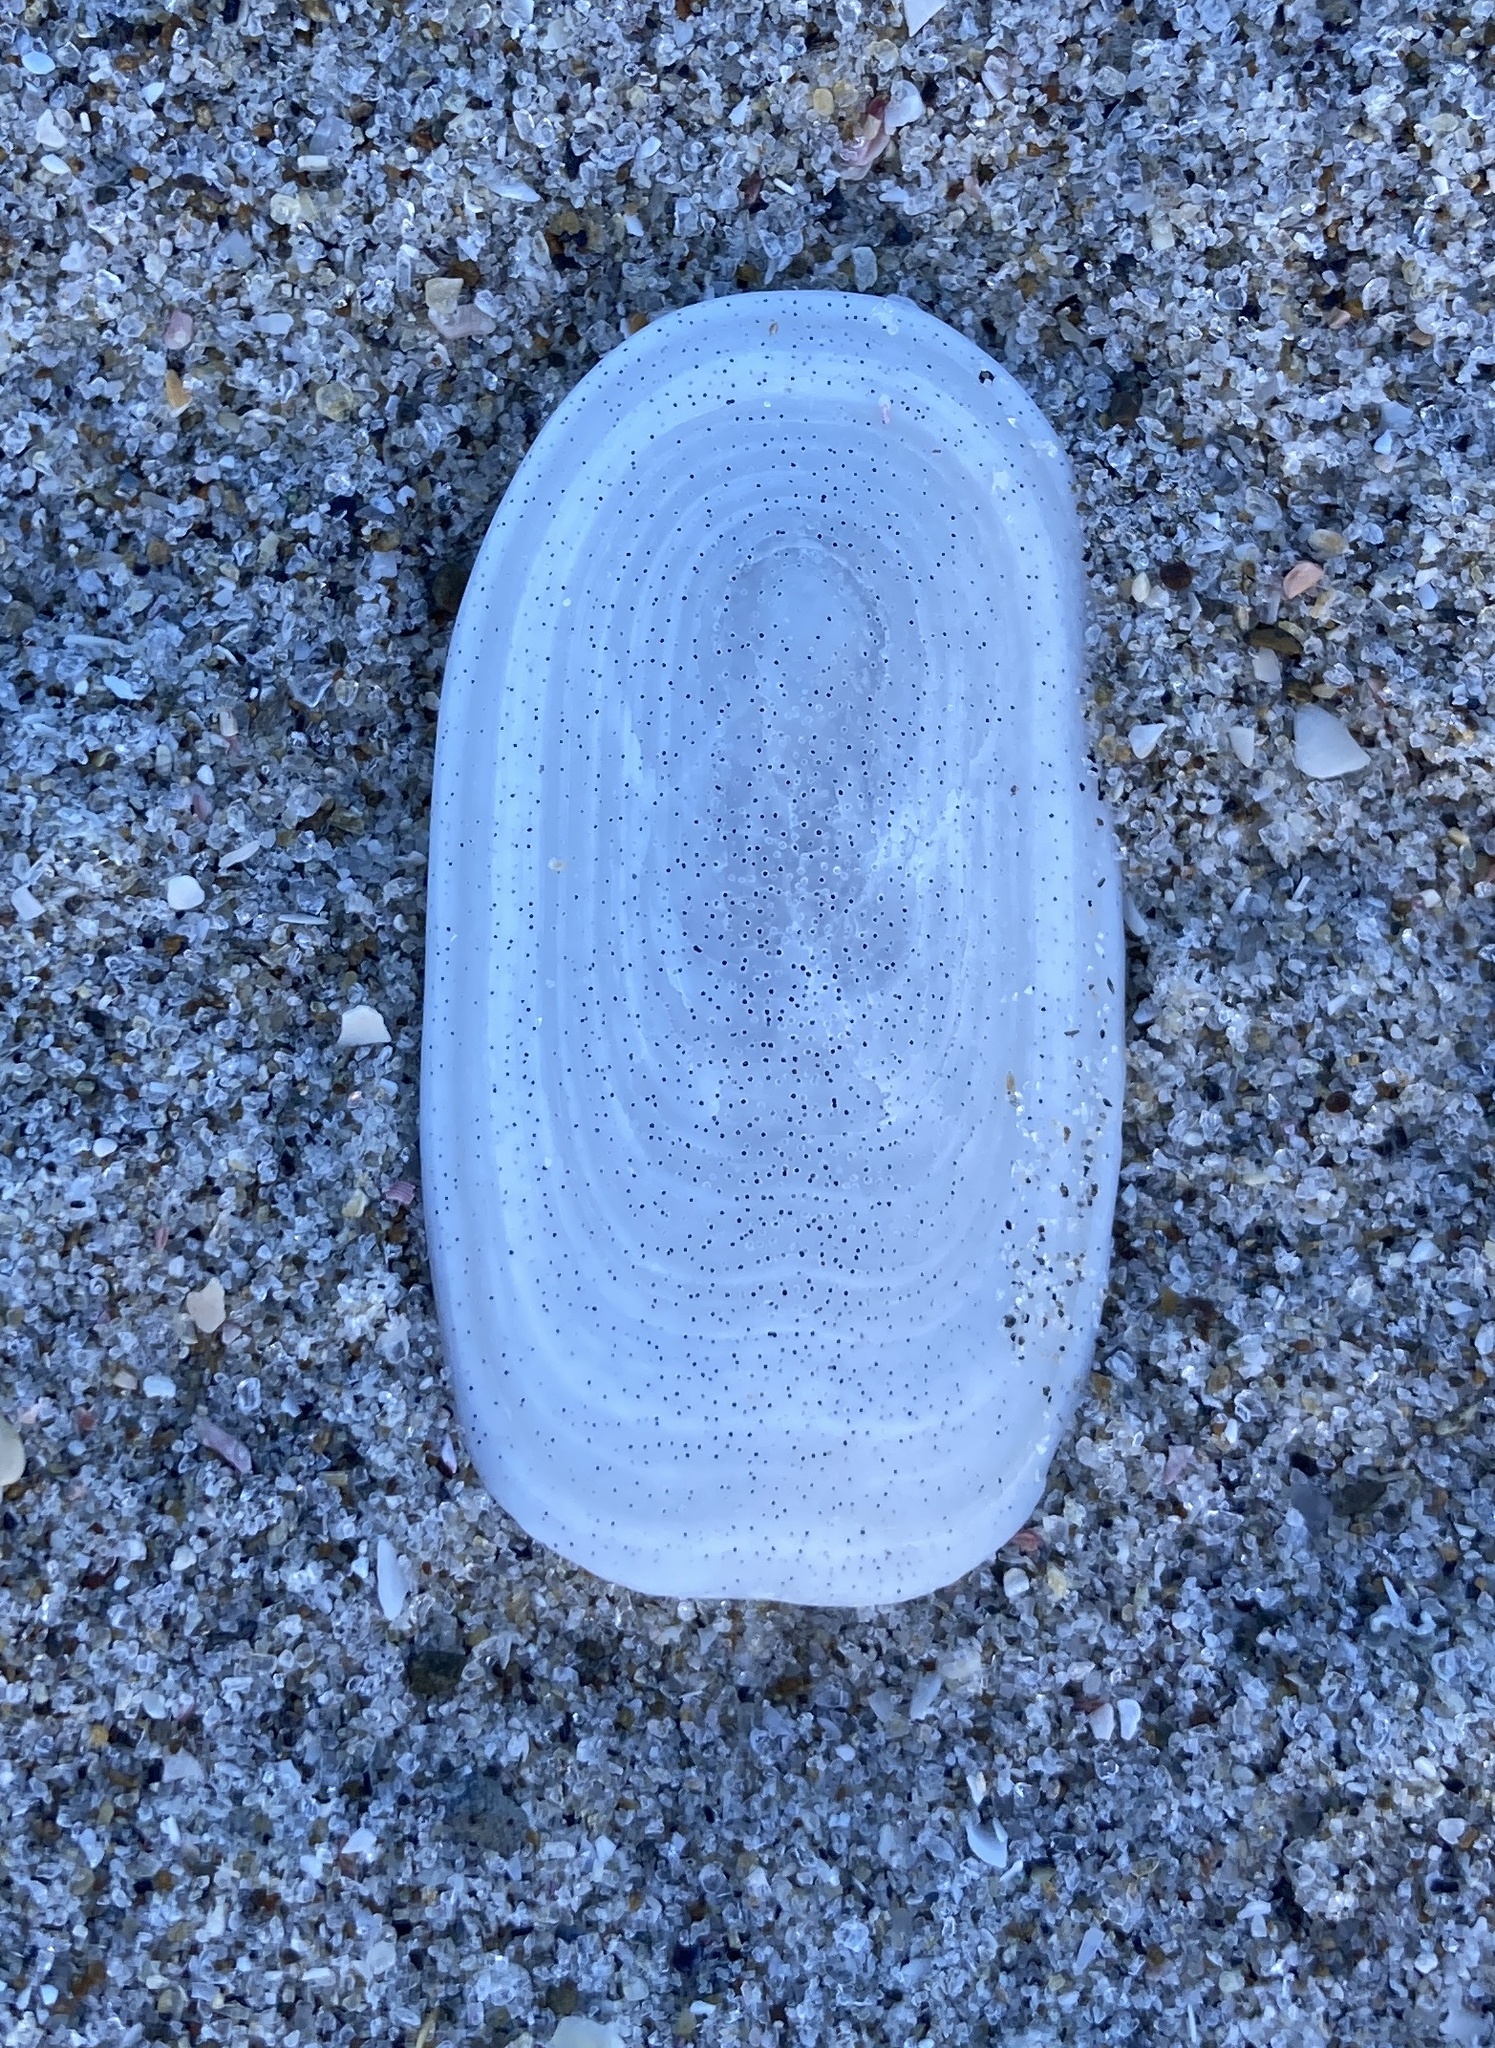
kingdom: Animalia
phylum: Mollusca
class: Gastropoda
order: Lepetellida
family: Fissurellidae
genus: Scutus
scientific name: Scutus breviculus
